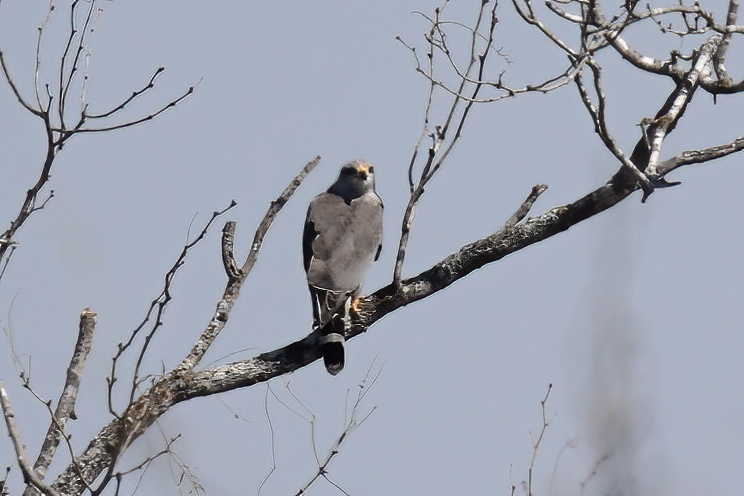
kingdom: Animalia
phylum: Chordata
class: Aves
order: Accipitriformes
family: Accipitridae
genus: Buteo
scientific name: Buteo nitidus
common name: Grey-lined hawk
